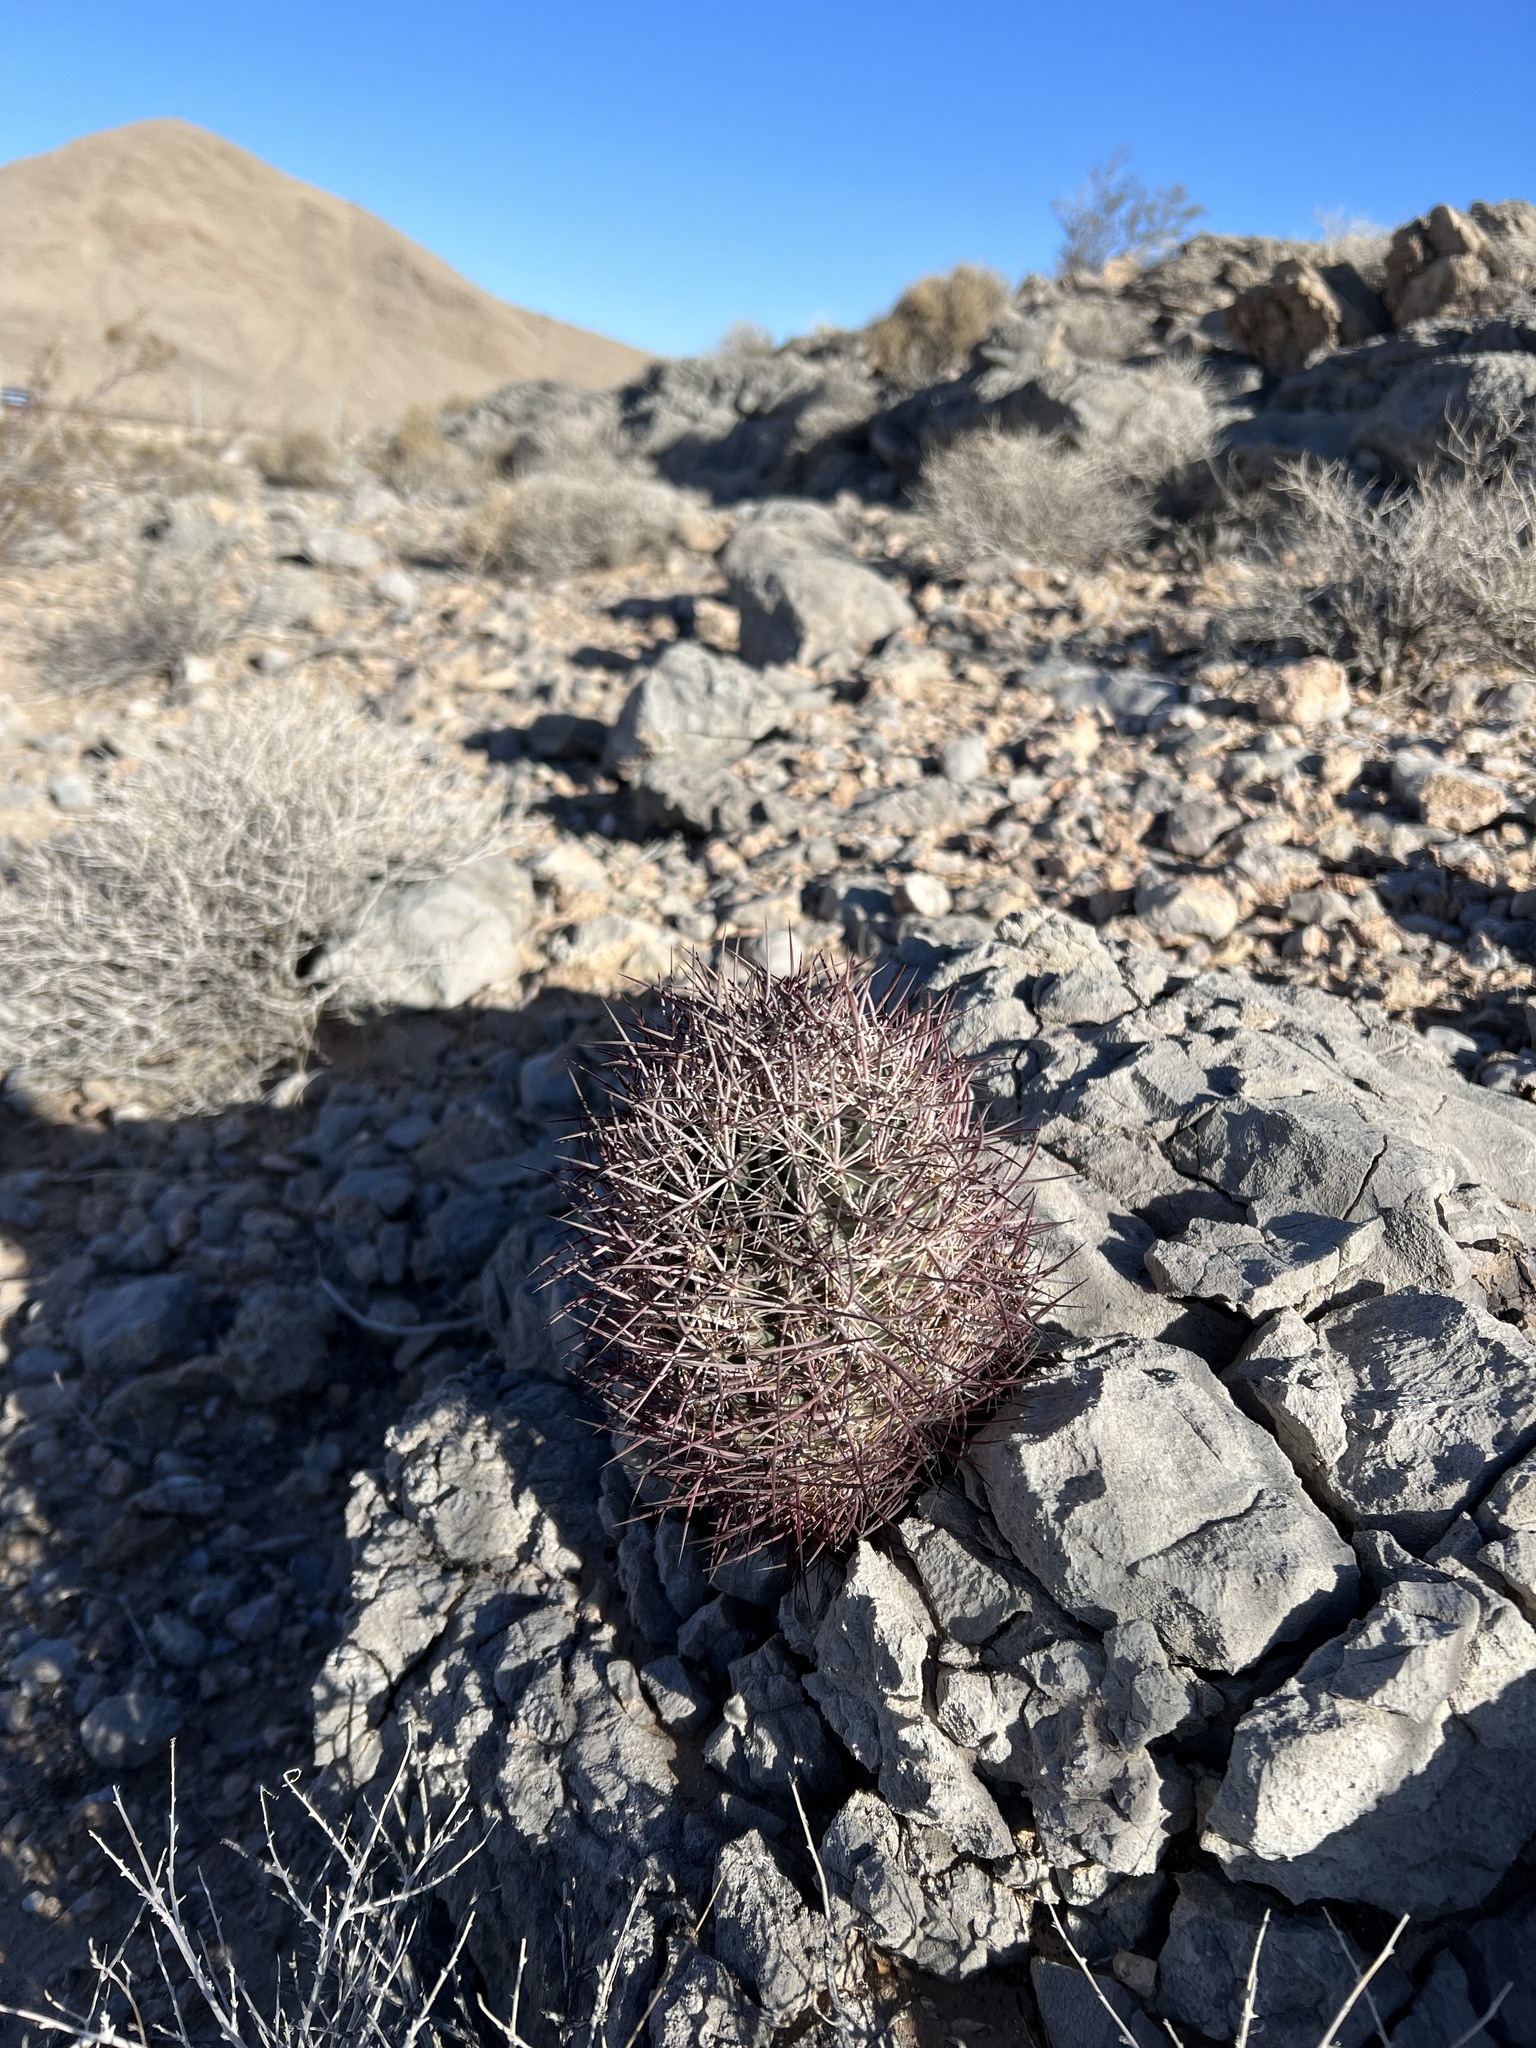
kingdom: Plantae
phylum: Tracheophyta
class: Magnoliopsida
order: Caryophyllales
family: Cactaceae
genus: Sclerocactus
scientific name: Sclerocactus johnsonii
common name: Eight-spine fishhook cactus
